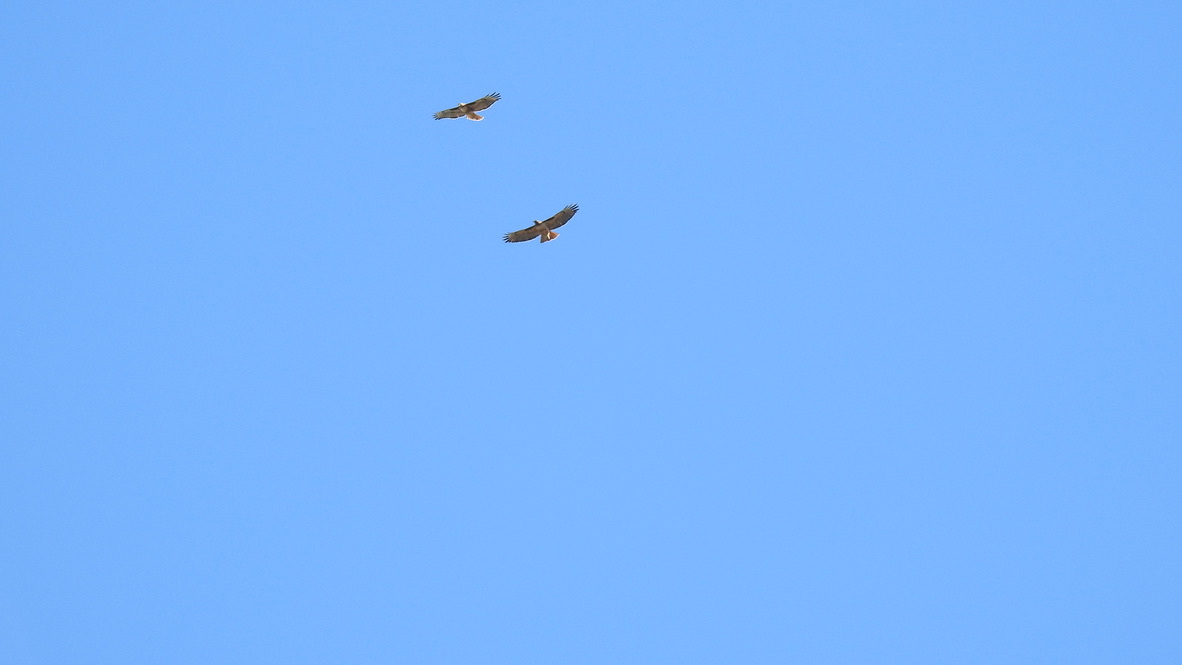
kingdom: Animalia
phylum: Chordata
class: Aves
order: Accipitriformes
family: Accipitridae
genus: Buteo
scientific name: Buteo jamaicensis
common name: Red-tailed hawk
